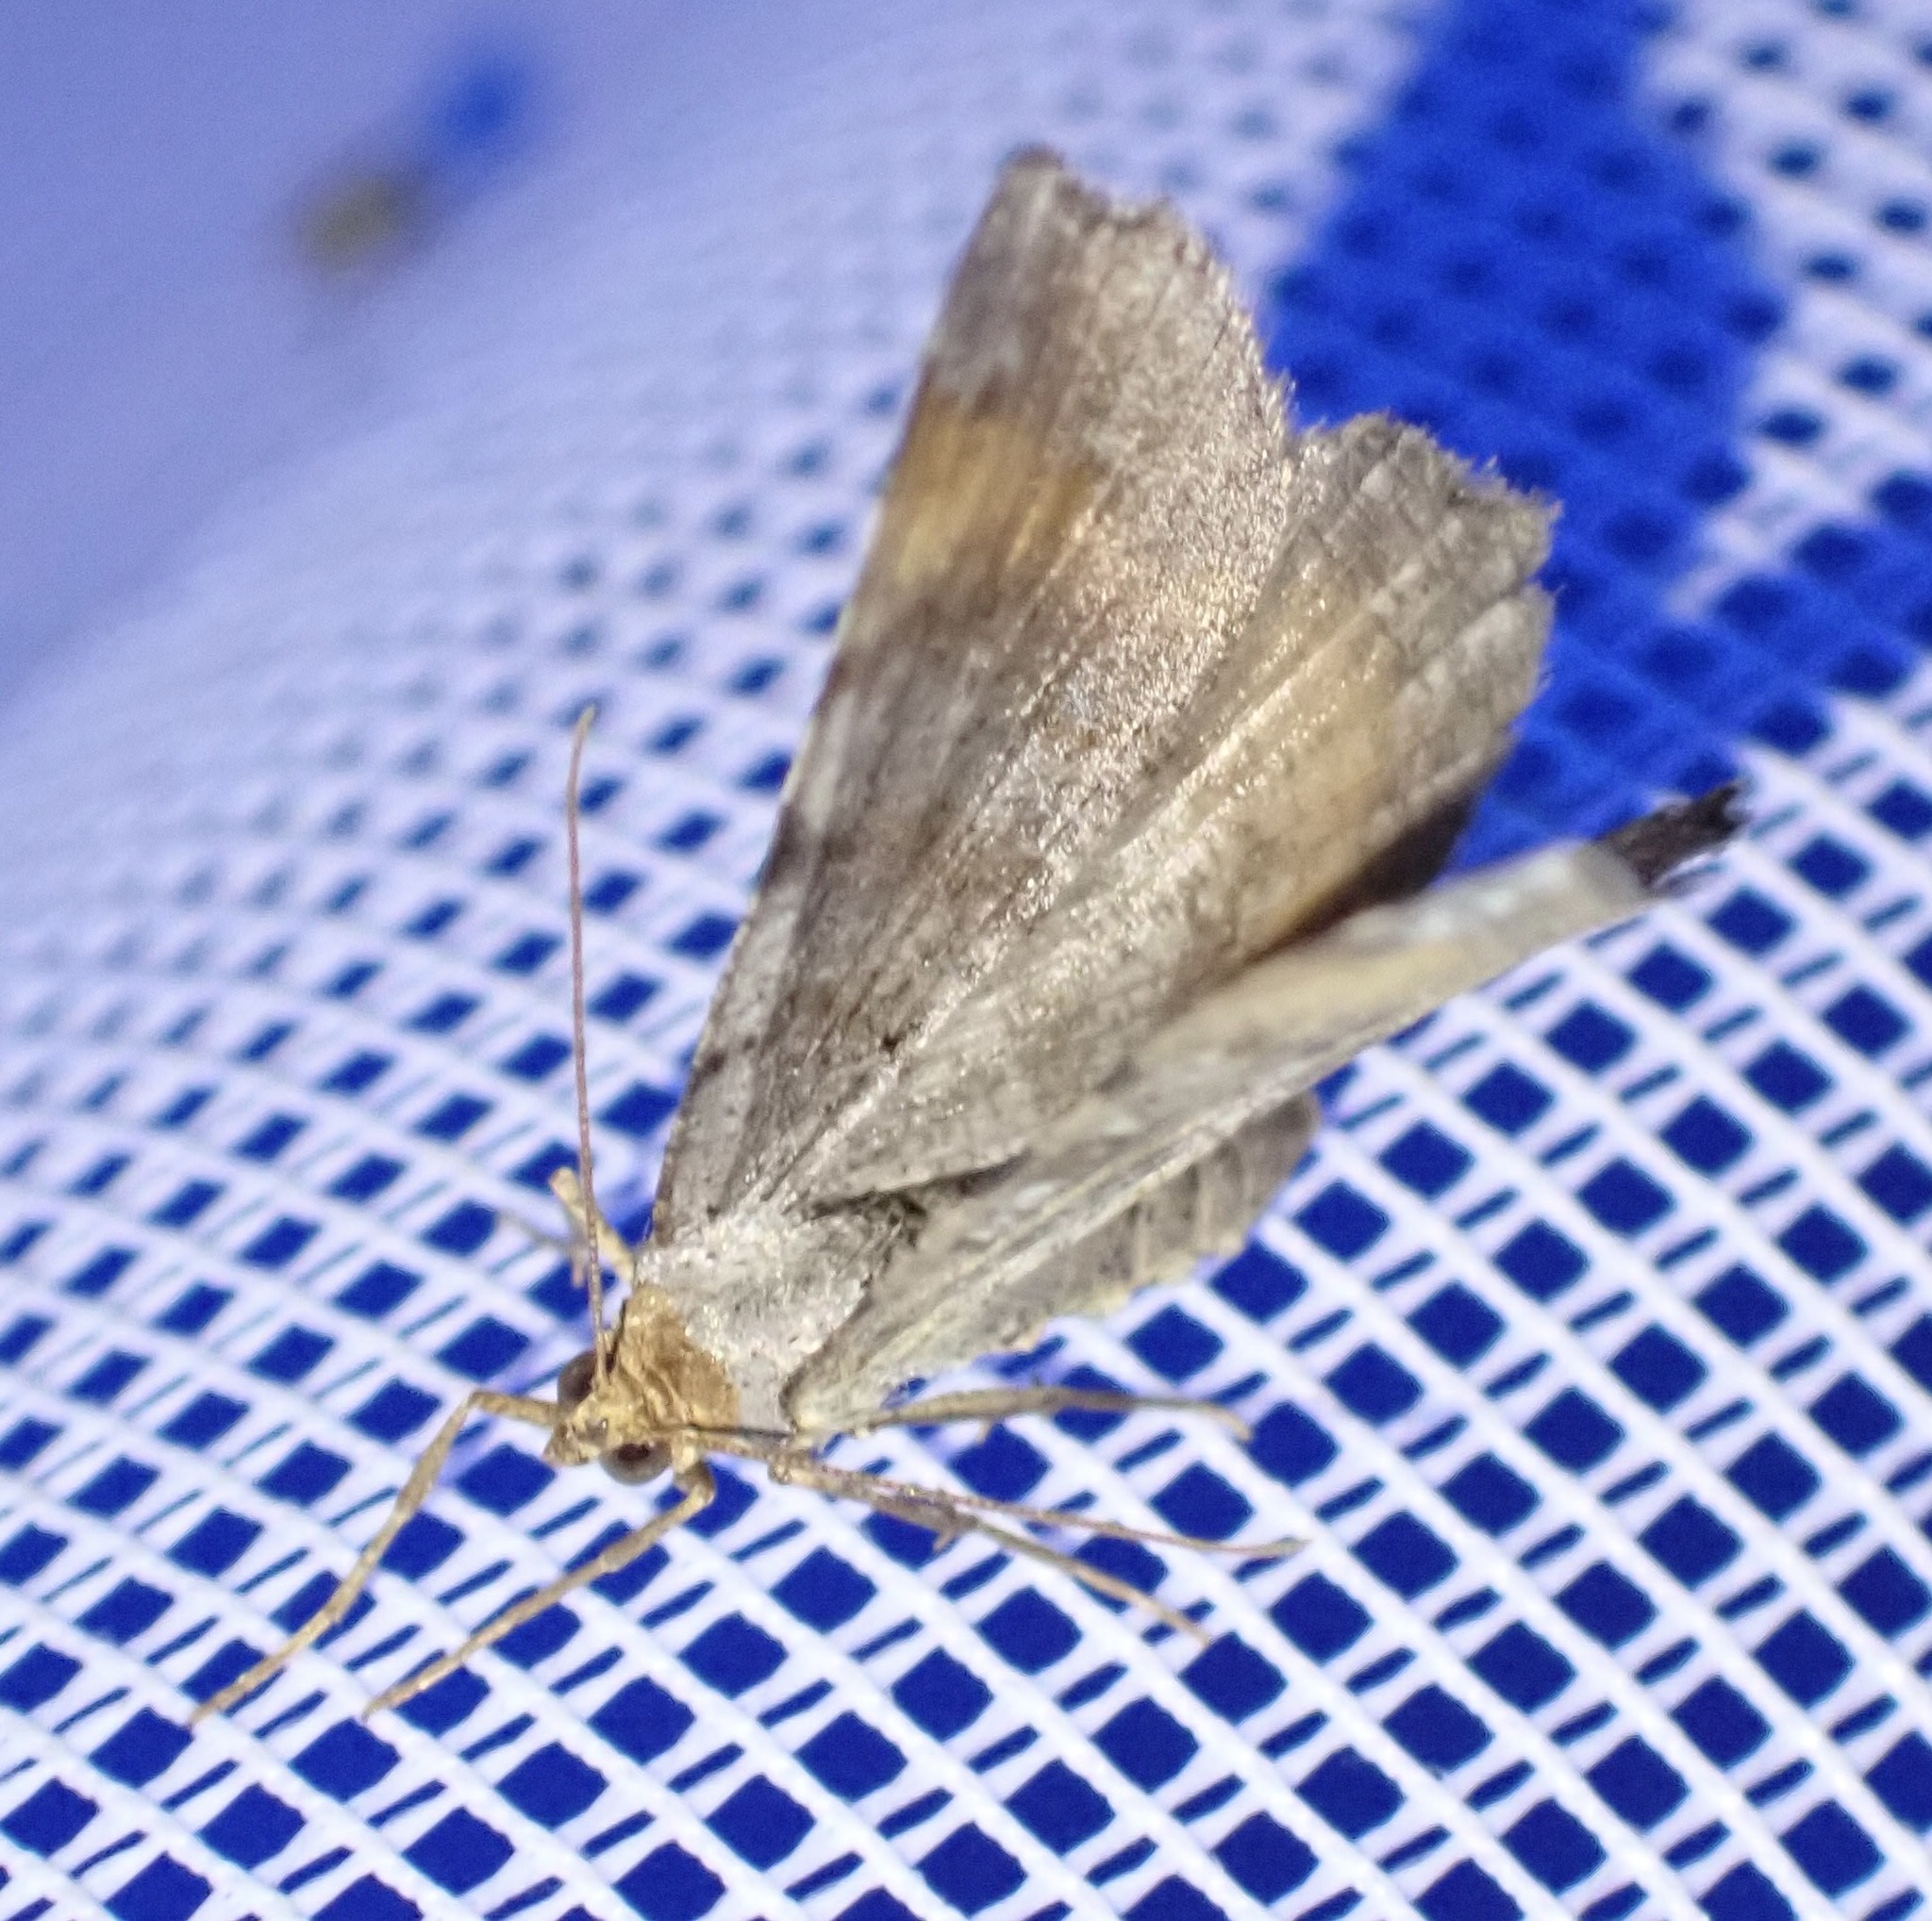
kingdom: Animalia
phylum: Arthropoda
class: Insecta
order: Lepidoptera
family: Geometridae
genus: Macaria
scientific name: Macaria liturata
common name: Tawny-barred angle
